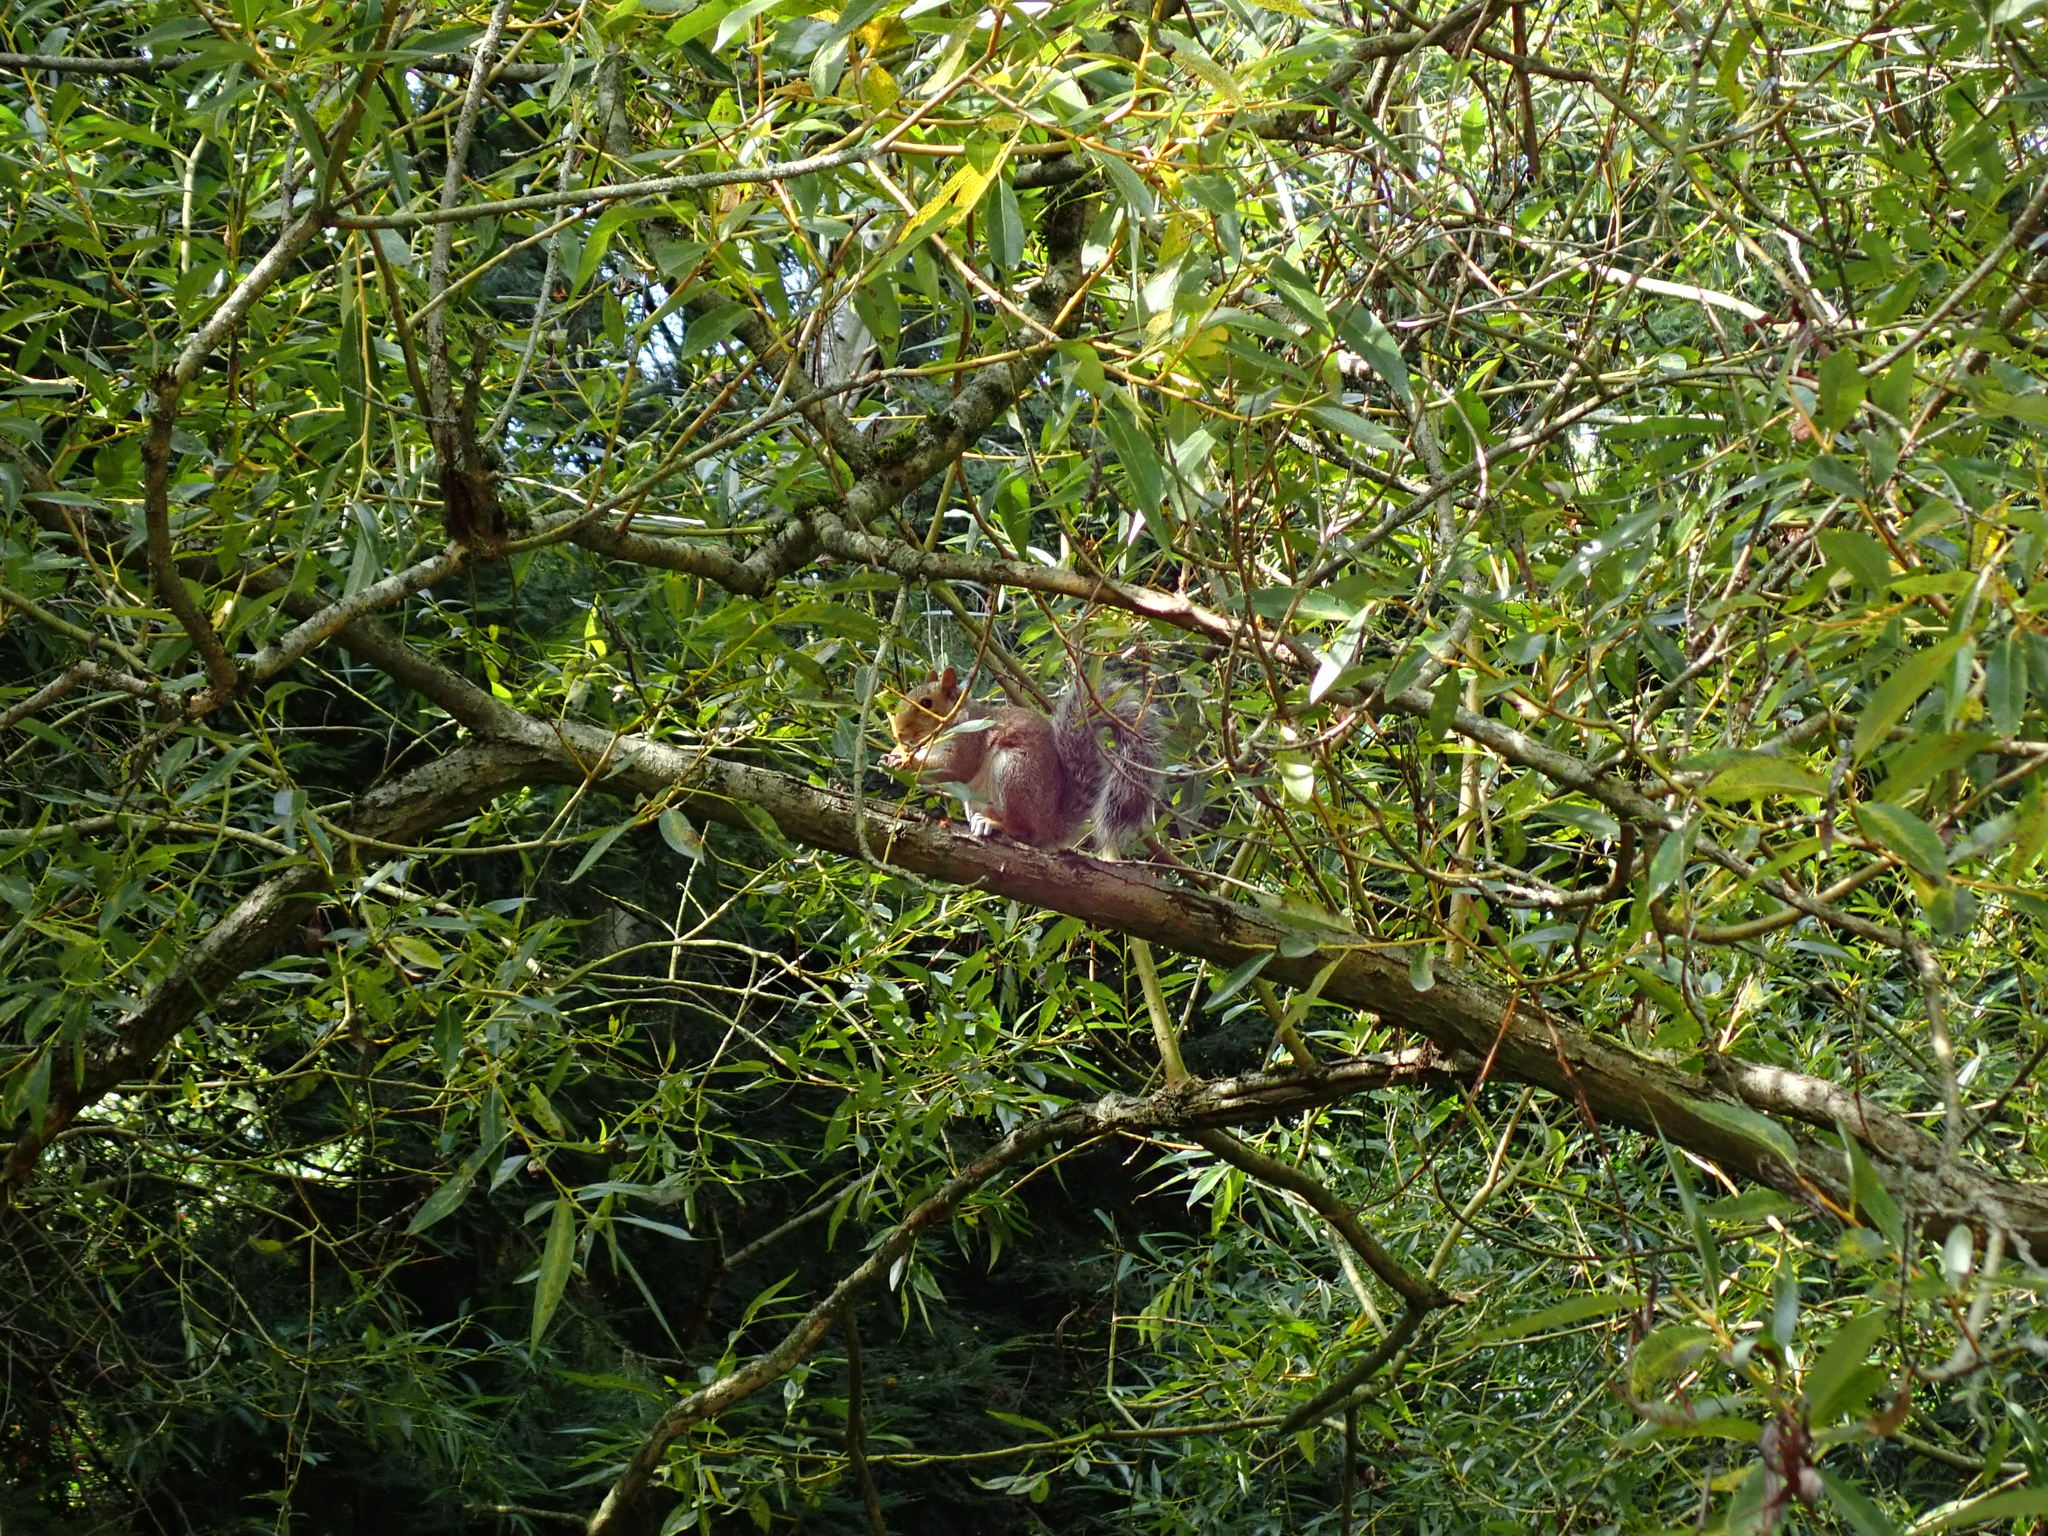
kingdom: Animalia
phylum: Chordata
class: Mammalia
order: Rodentia
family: Sciuridae
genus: Sciurus
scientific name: Sciurus carolinensis
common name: Eastern gray squirrel
